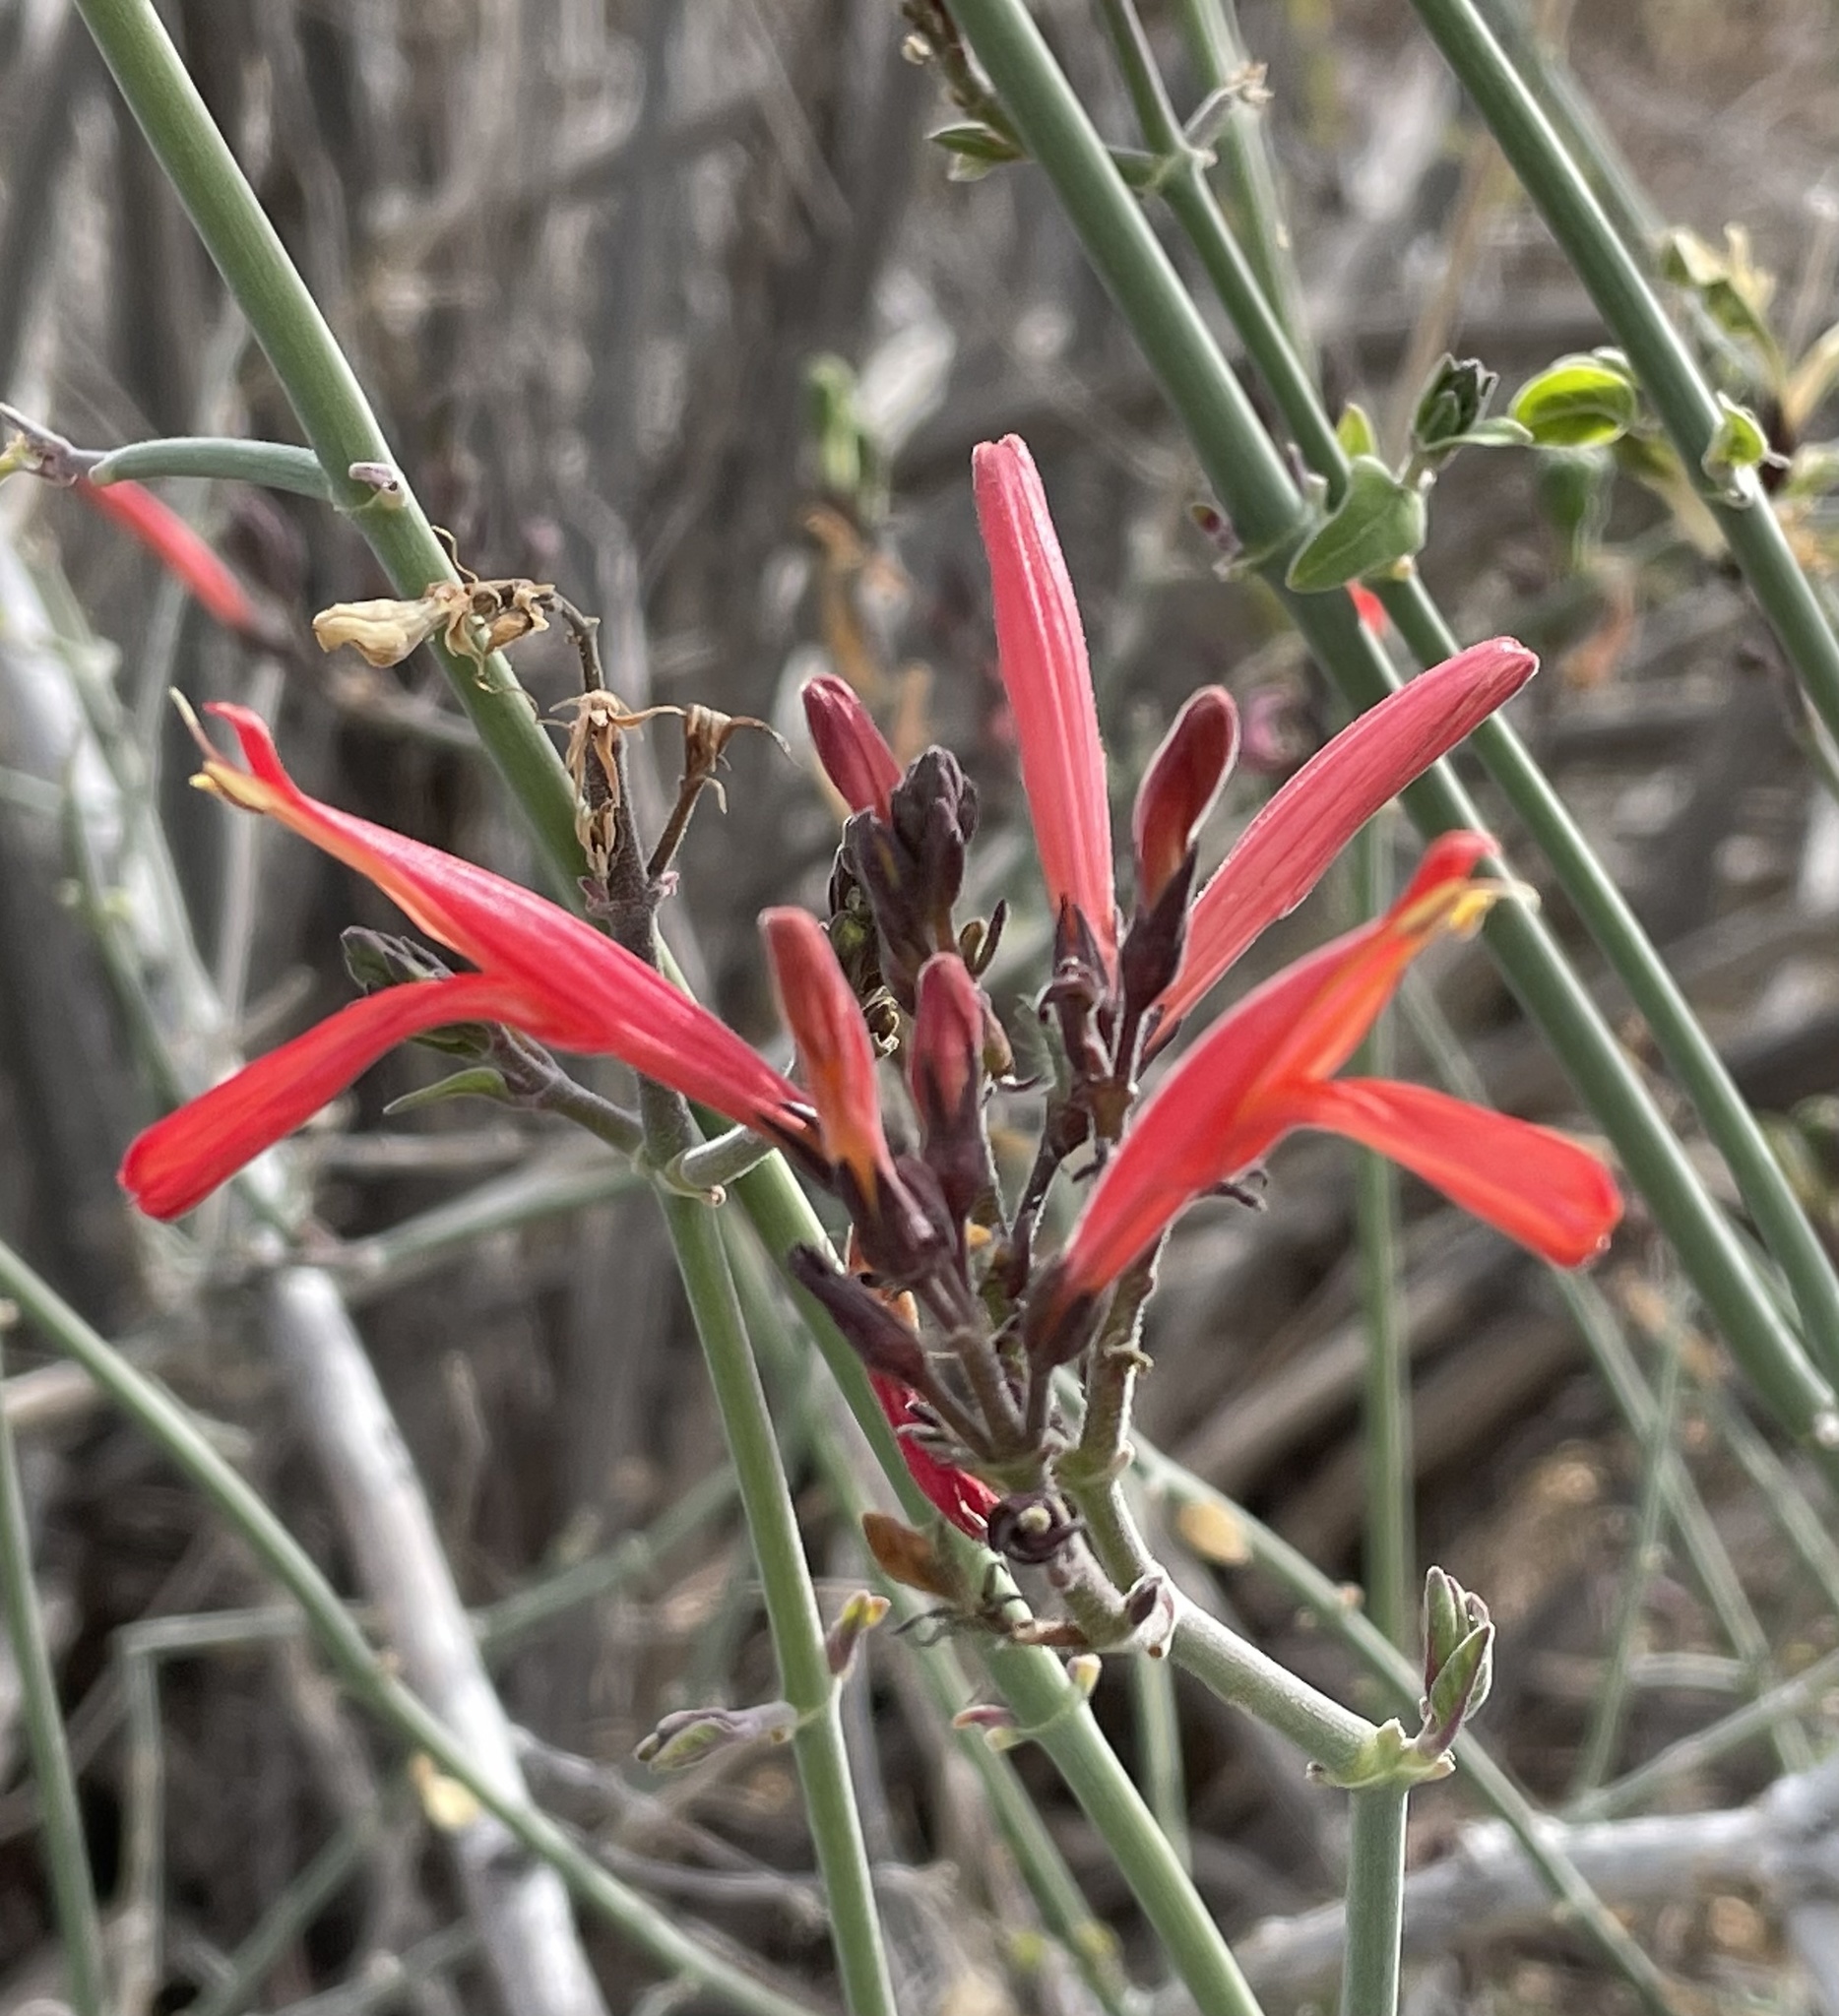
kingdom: Plantae
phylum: Tracheophyta
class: Magnoliopsida
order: Lamiales
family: Acanthaceae
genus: Justicia
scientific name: Justicia californica
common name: Chuparosa-honeysuckle
